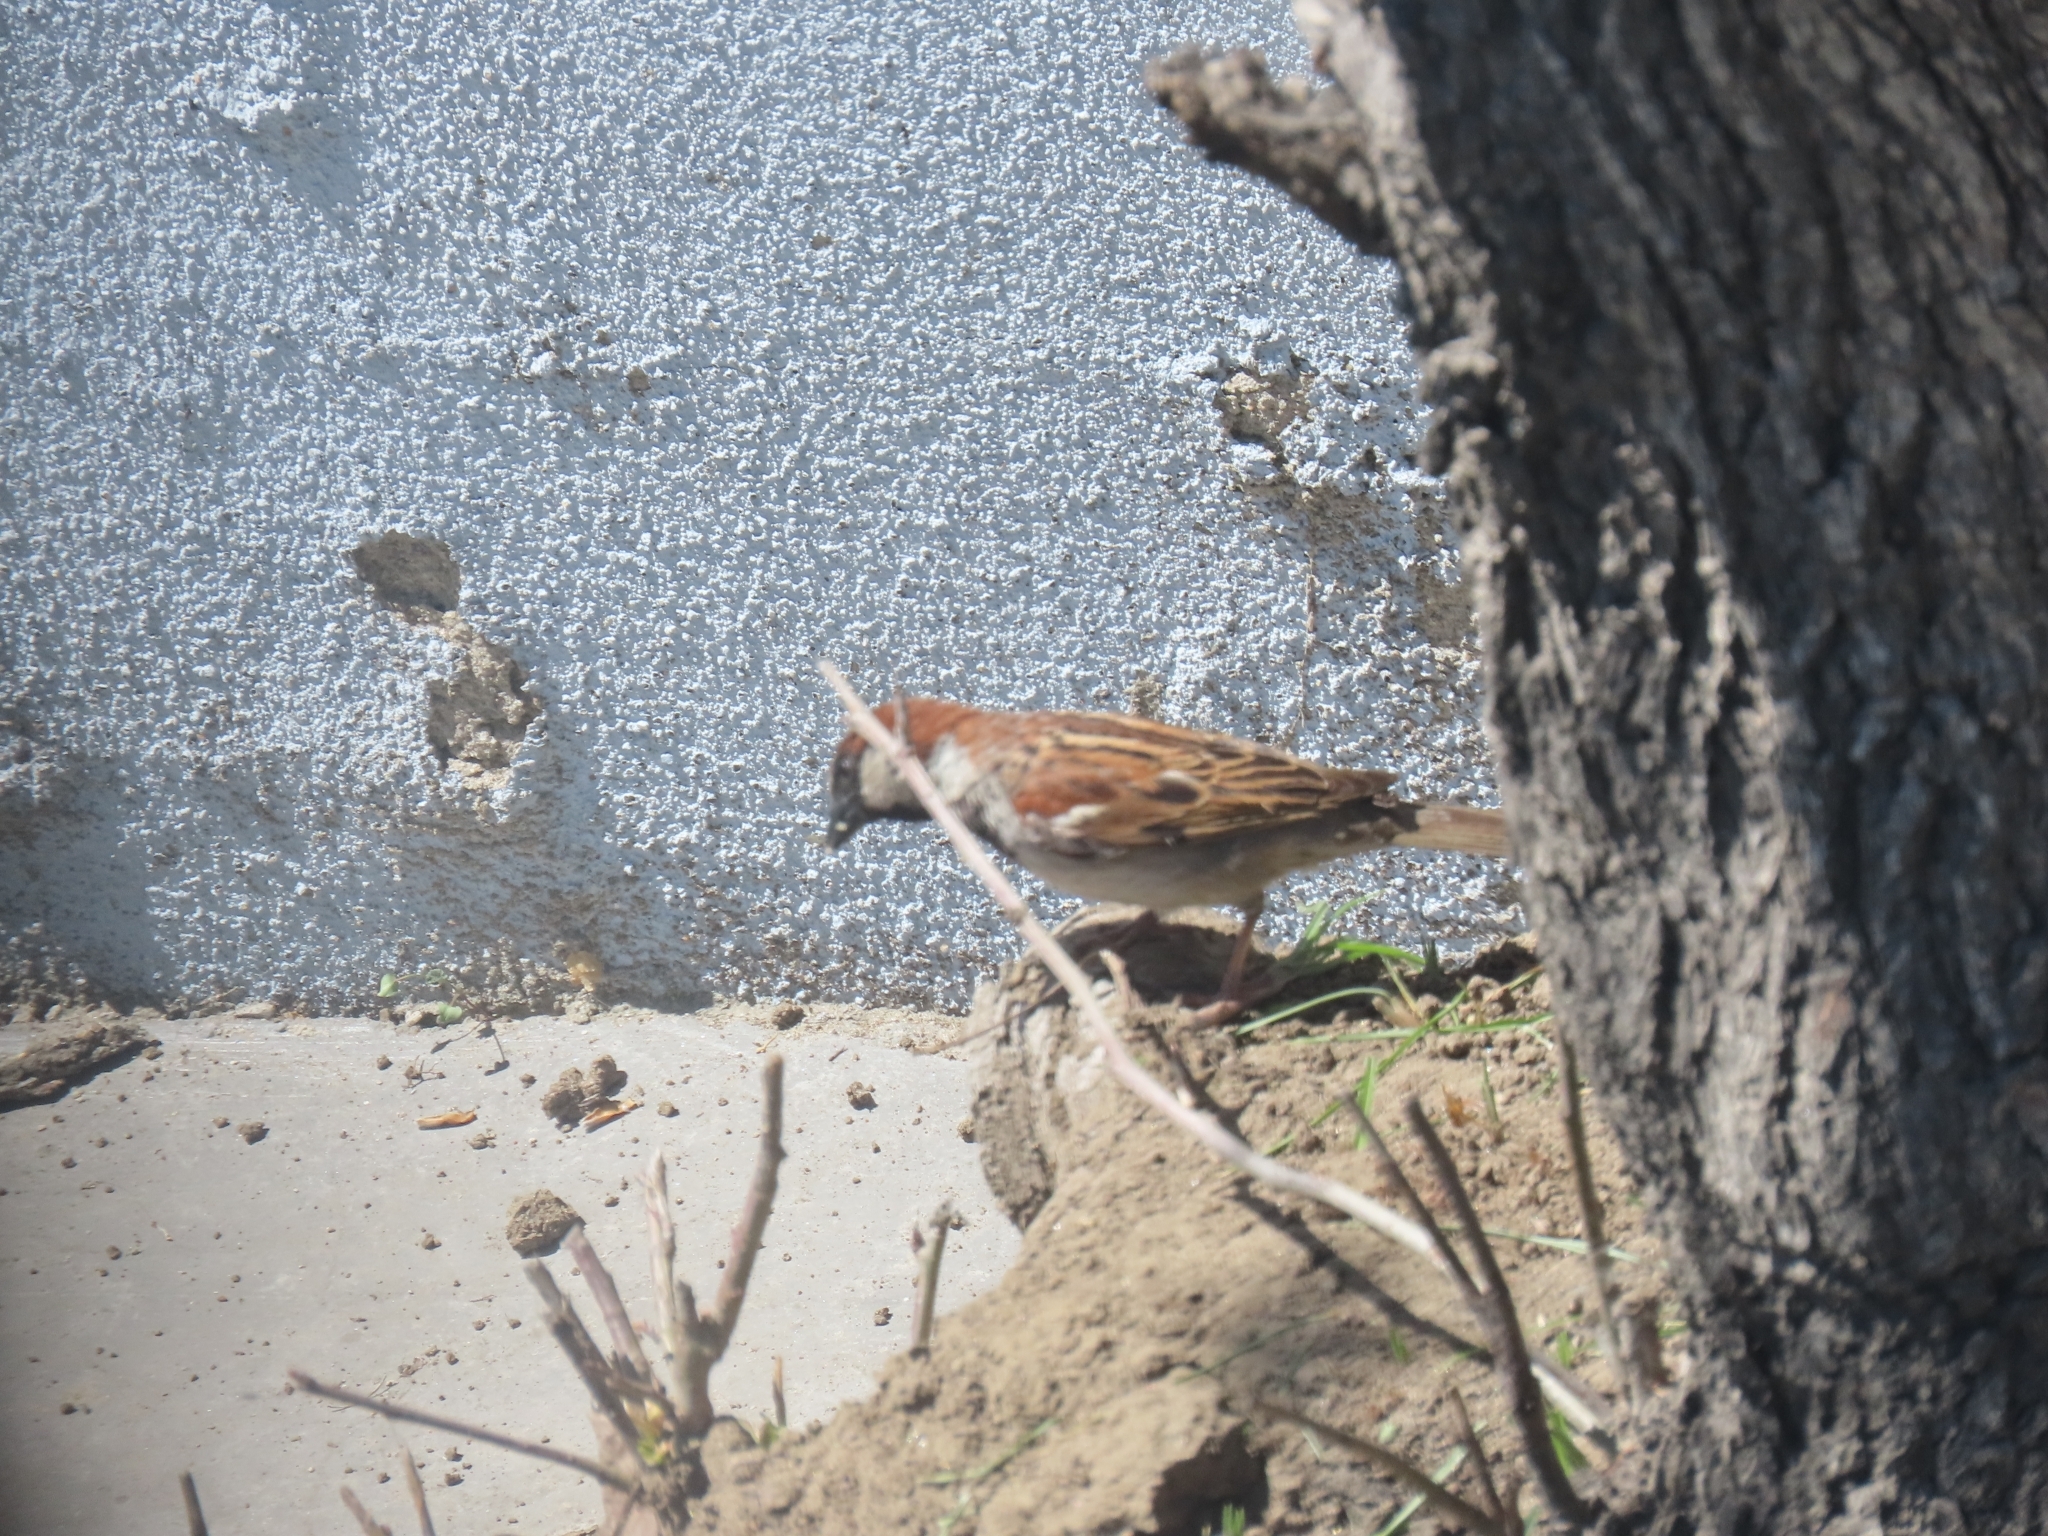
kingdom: Animalia
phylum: Chordata
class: Aves
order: Passeriformes
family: Passeridae
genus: Passer
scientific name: Passer domesticus
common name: House sparrow
